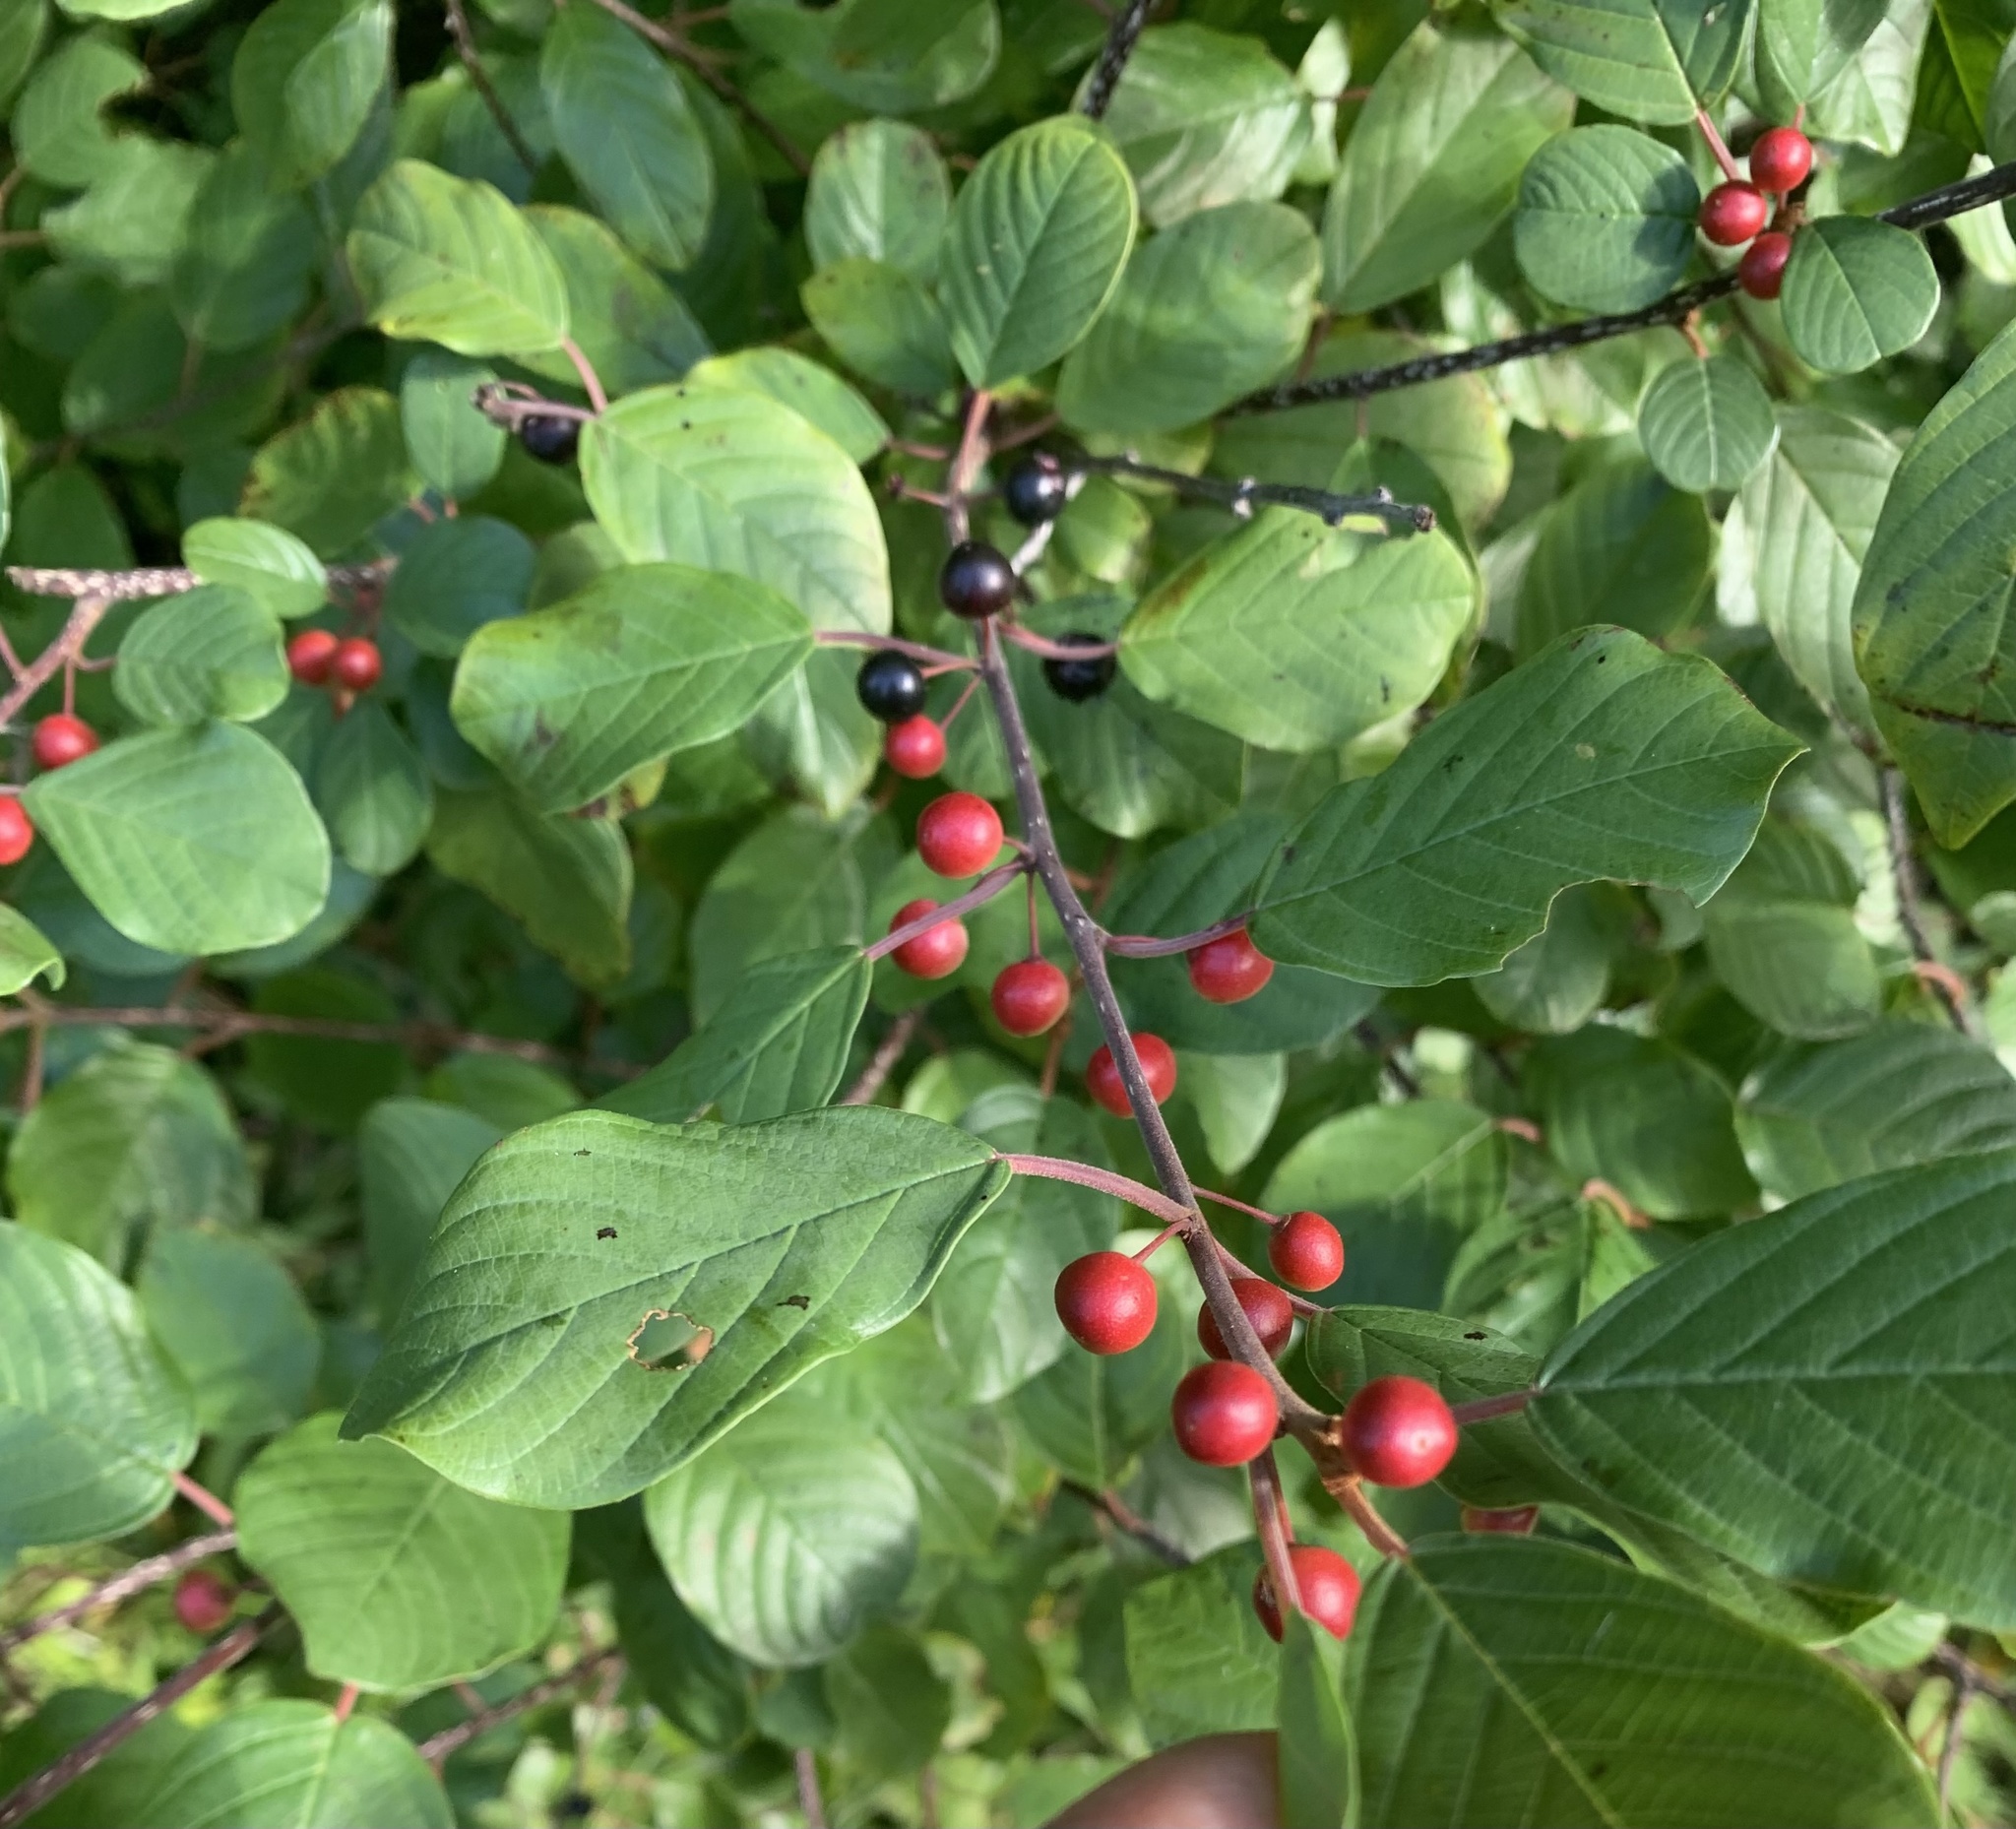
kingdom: Plantae
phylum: Tracheophyta
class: Magnoliopsida
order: Rosales
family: Rhamnaceae
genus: Frangula
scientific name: Frangula alnus
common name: Alder buckthorn
